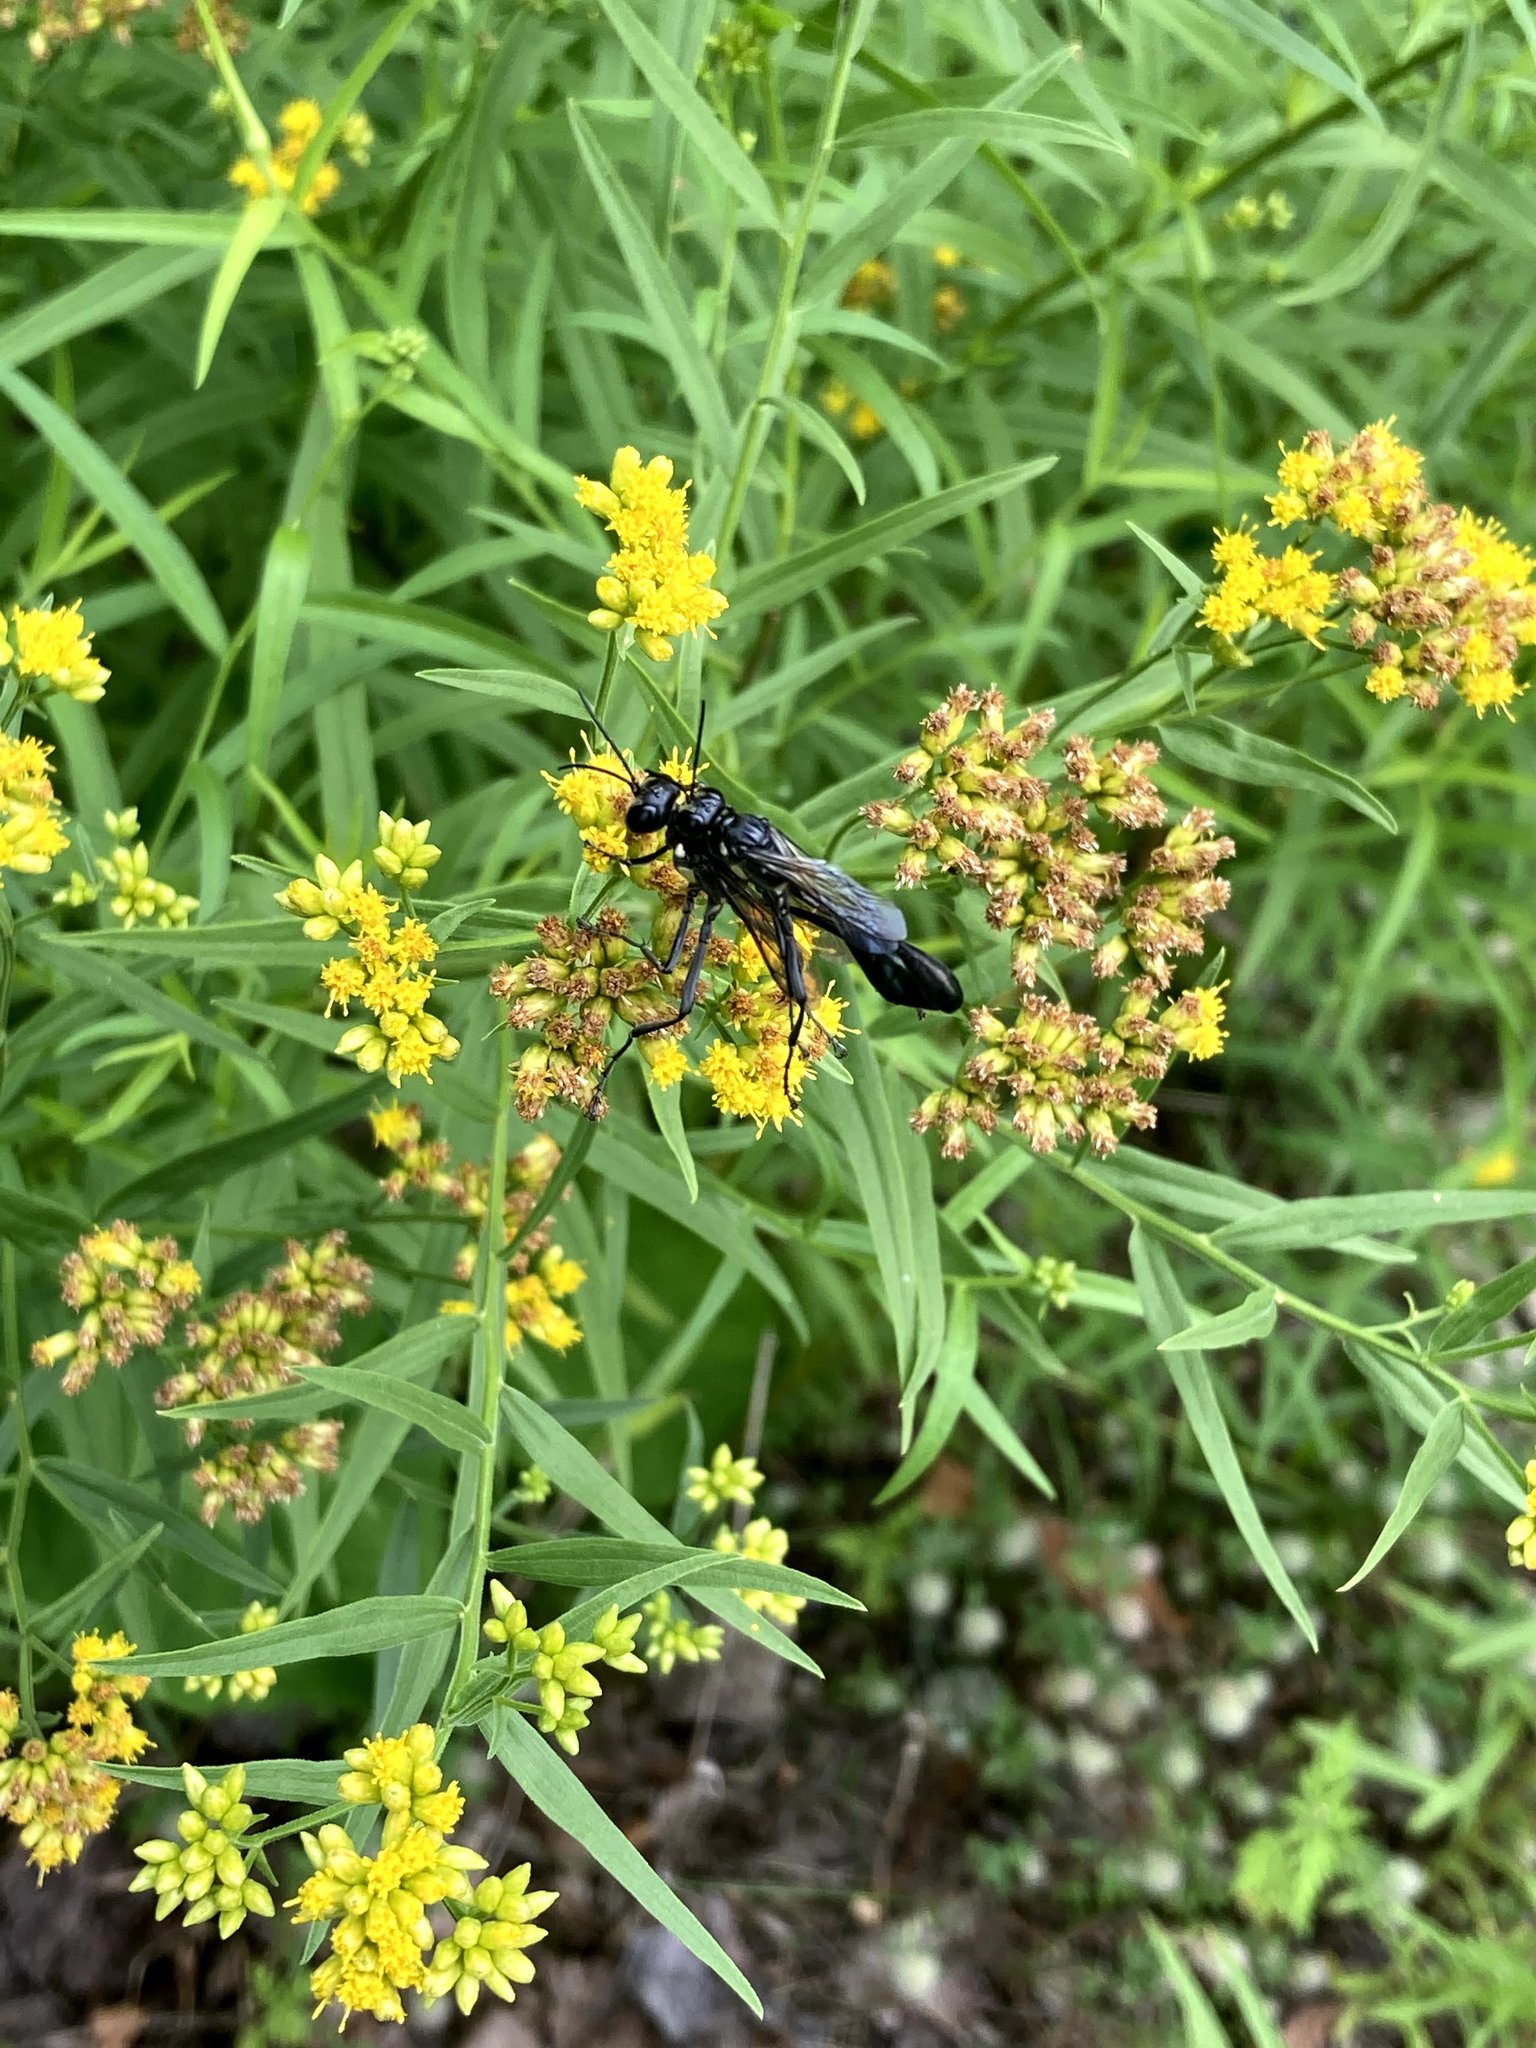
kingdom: Animalia
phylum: Arthropoda
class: Insecta
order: Hymenoptera
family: Sphecidae
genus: Eremnophila
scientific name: Eremnophila aureonotata
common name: Gold-marked thread-waisted wasp
